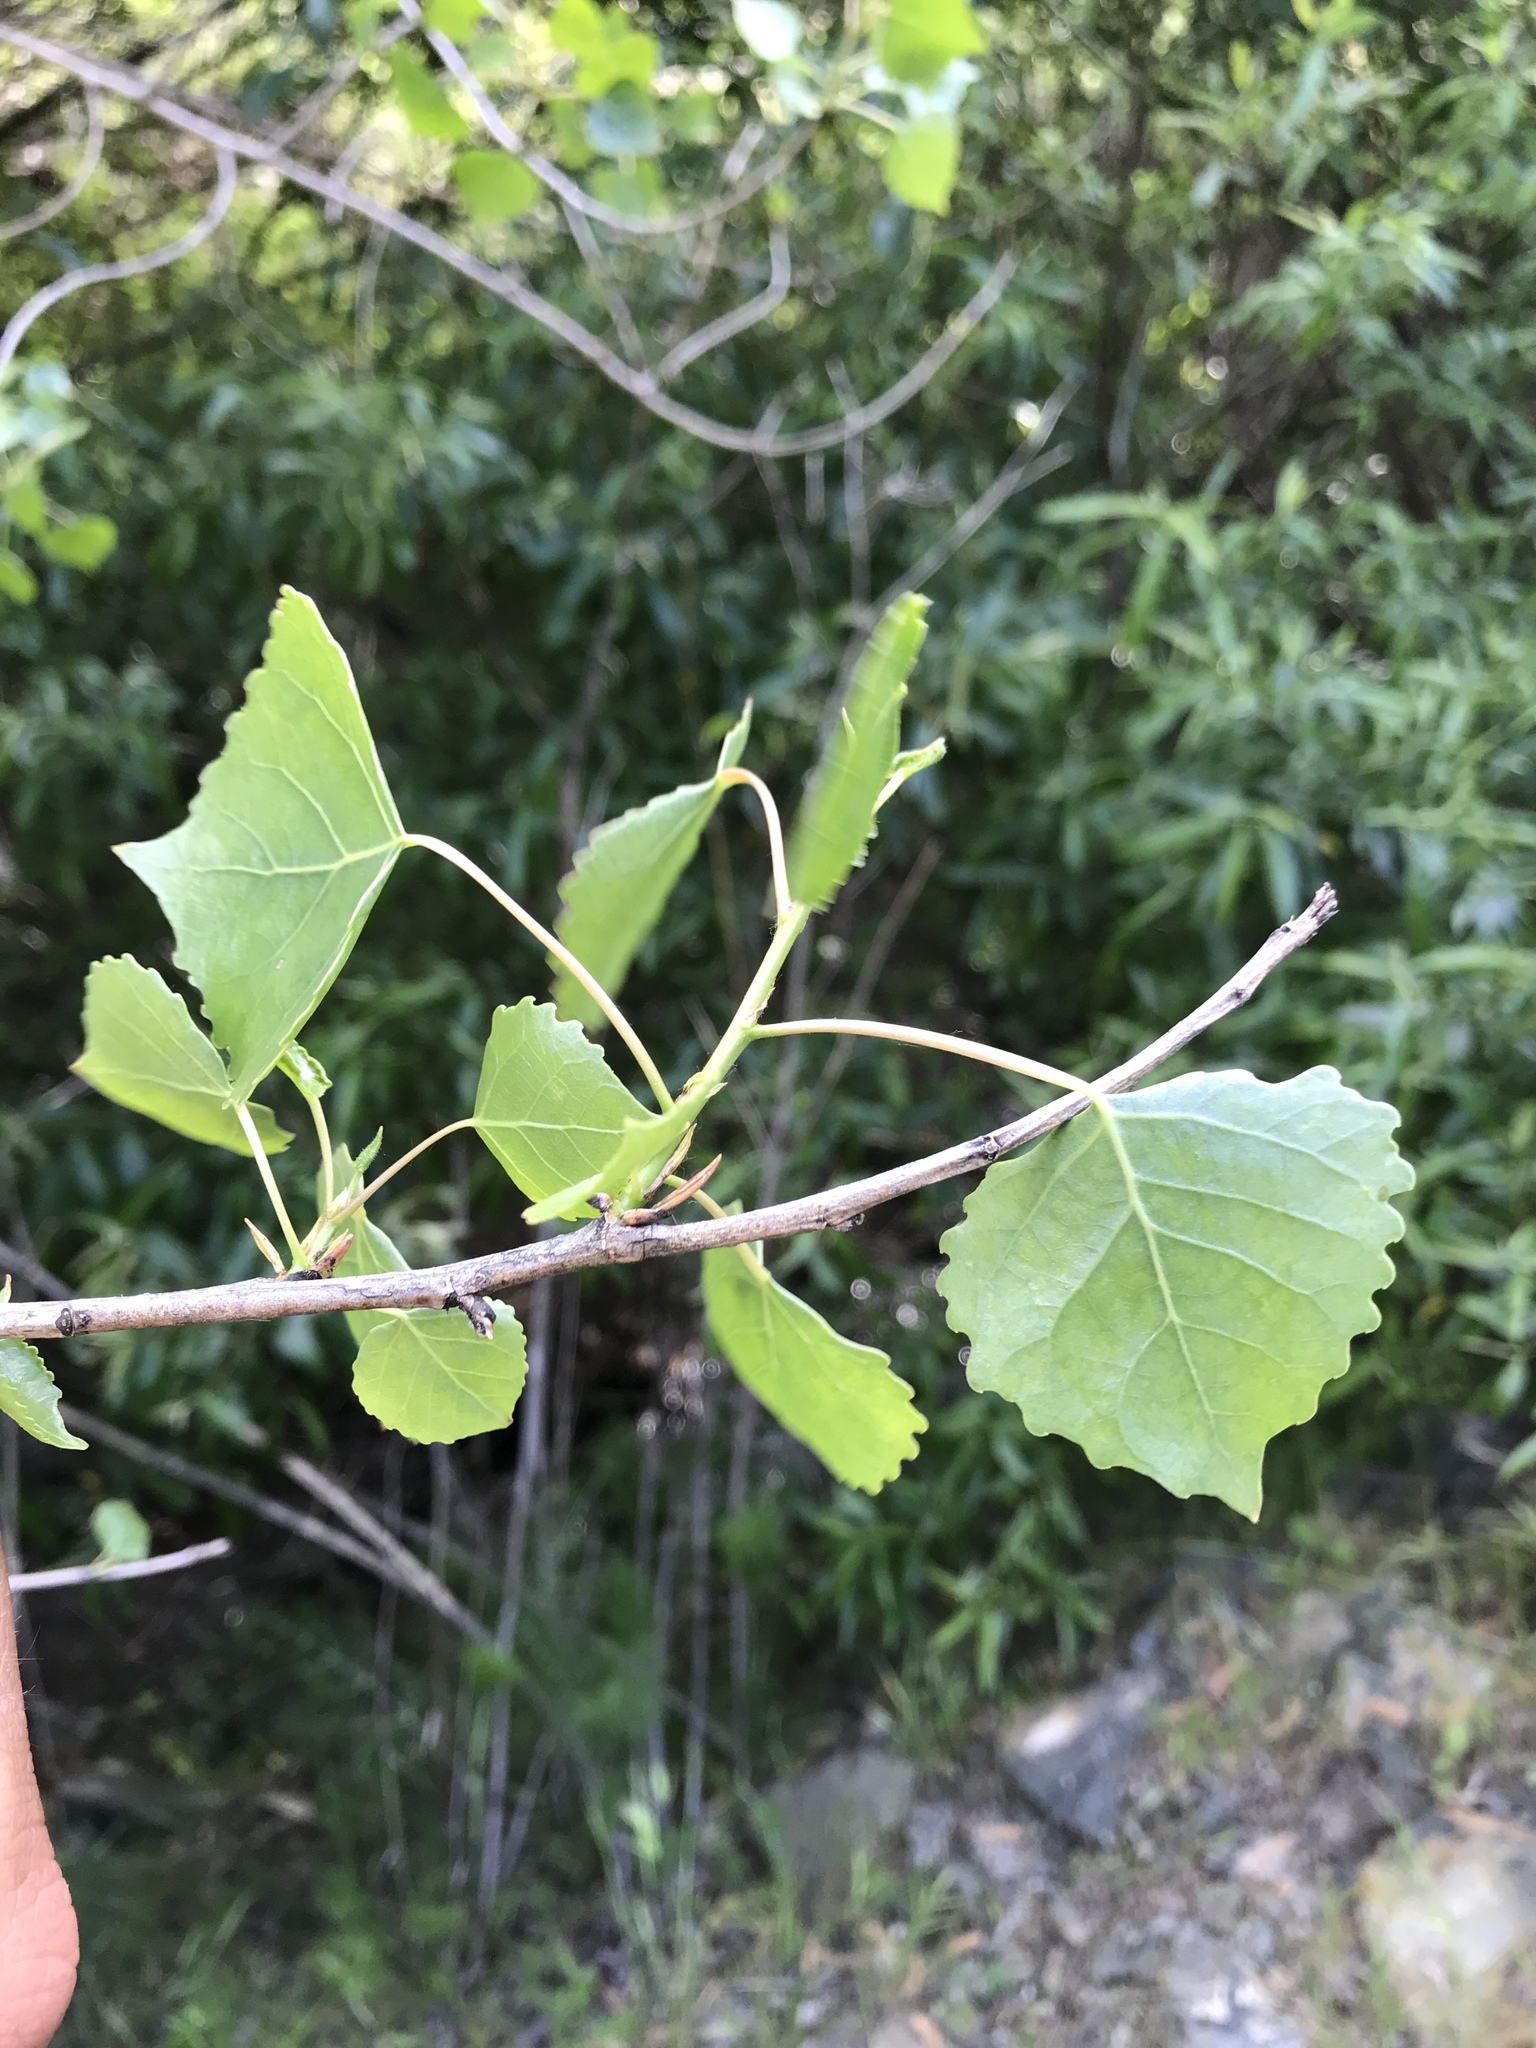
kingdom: Plantae
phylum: Tracheophyta
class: Magnoliopsida
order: Malpighiales
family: Salicaceae
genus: Populus
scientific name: Populus fremontii
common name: Fremont's cottonwood
